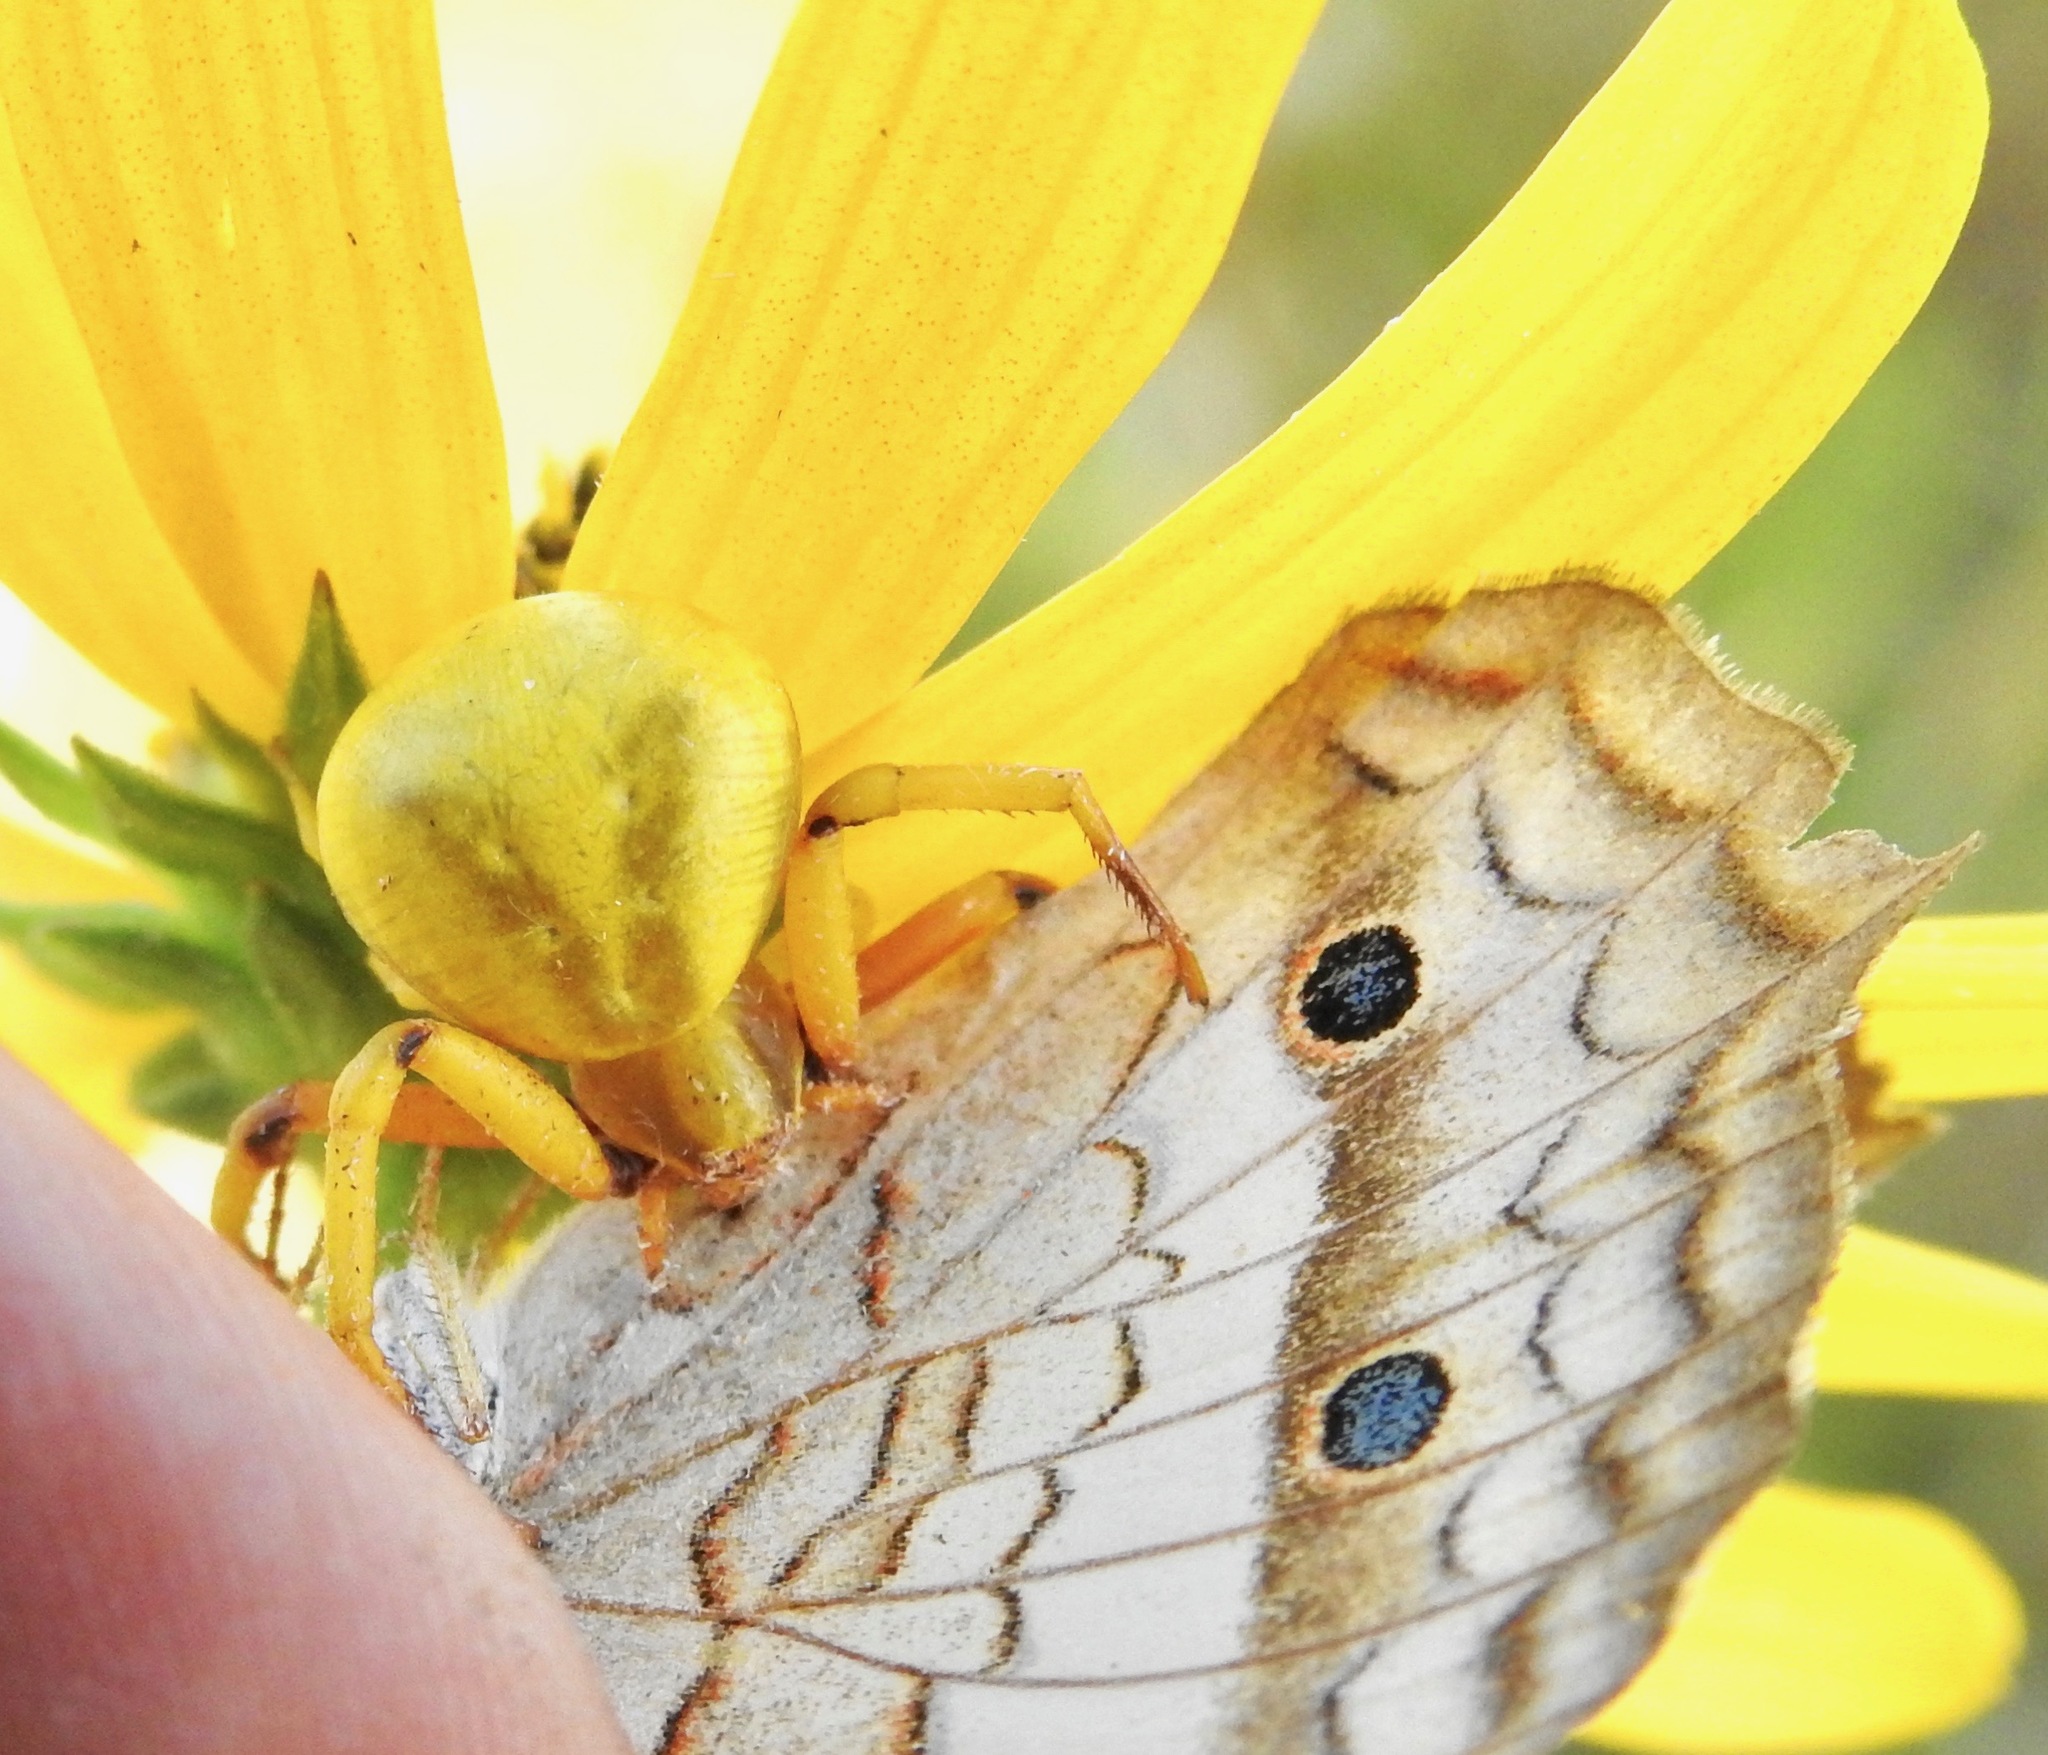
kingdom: Animalia
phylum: Arthropoda
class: Insecta
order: Lepidoptera
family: Nymphalidae
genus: Anartia
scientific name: Anartia jatrophae
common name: White peacock
